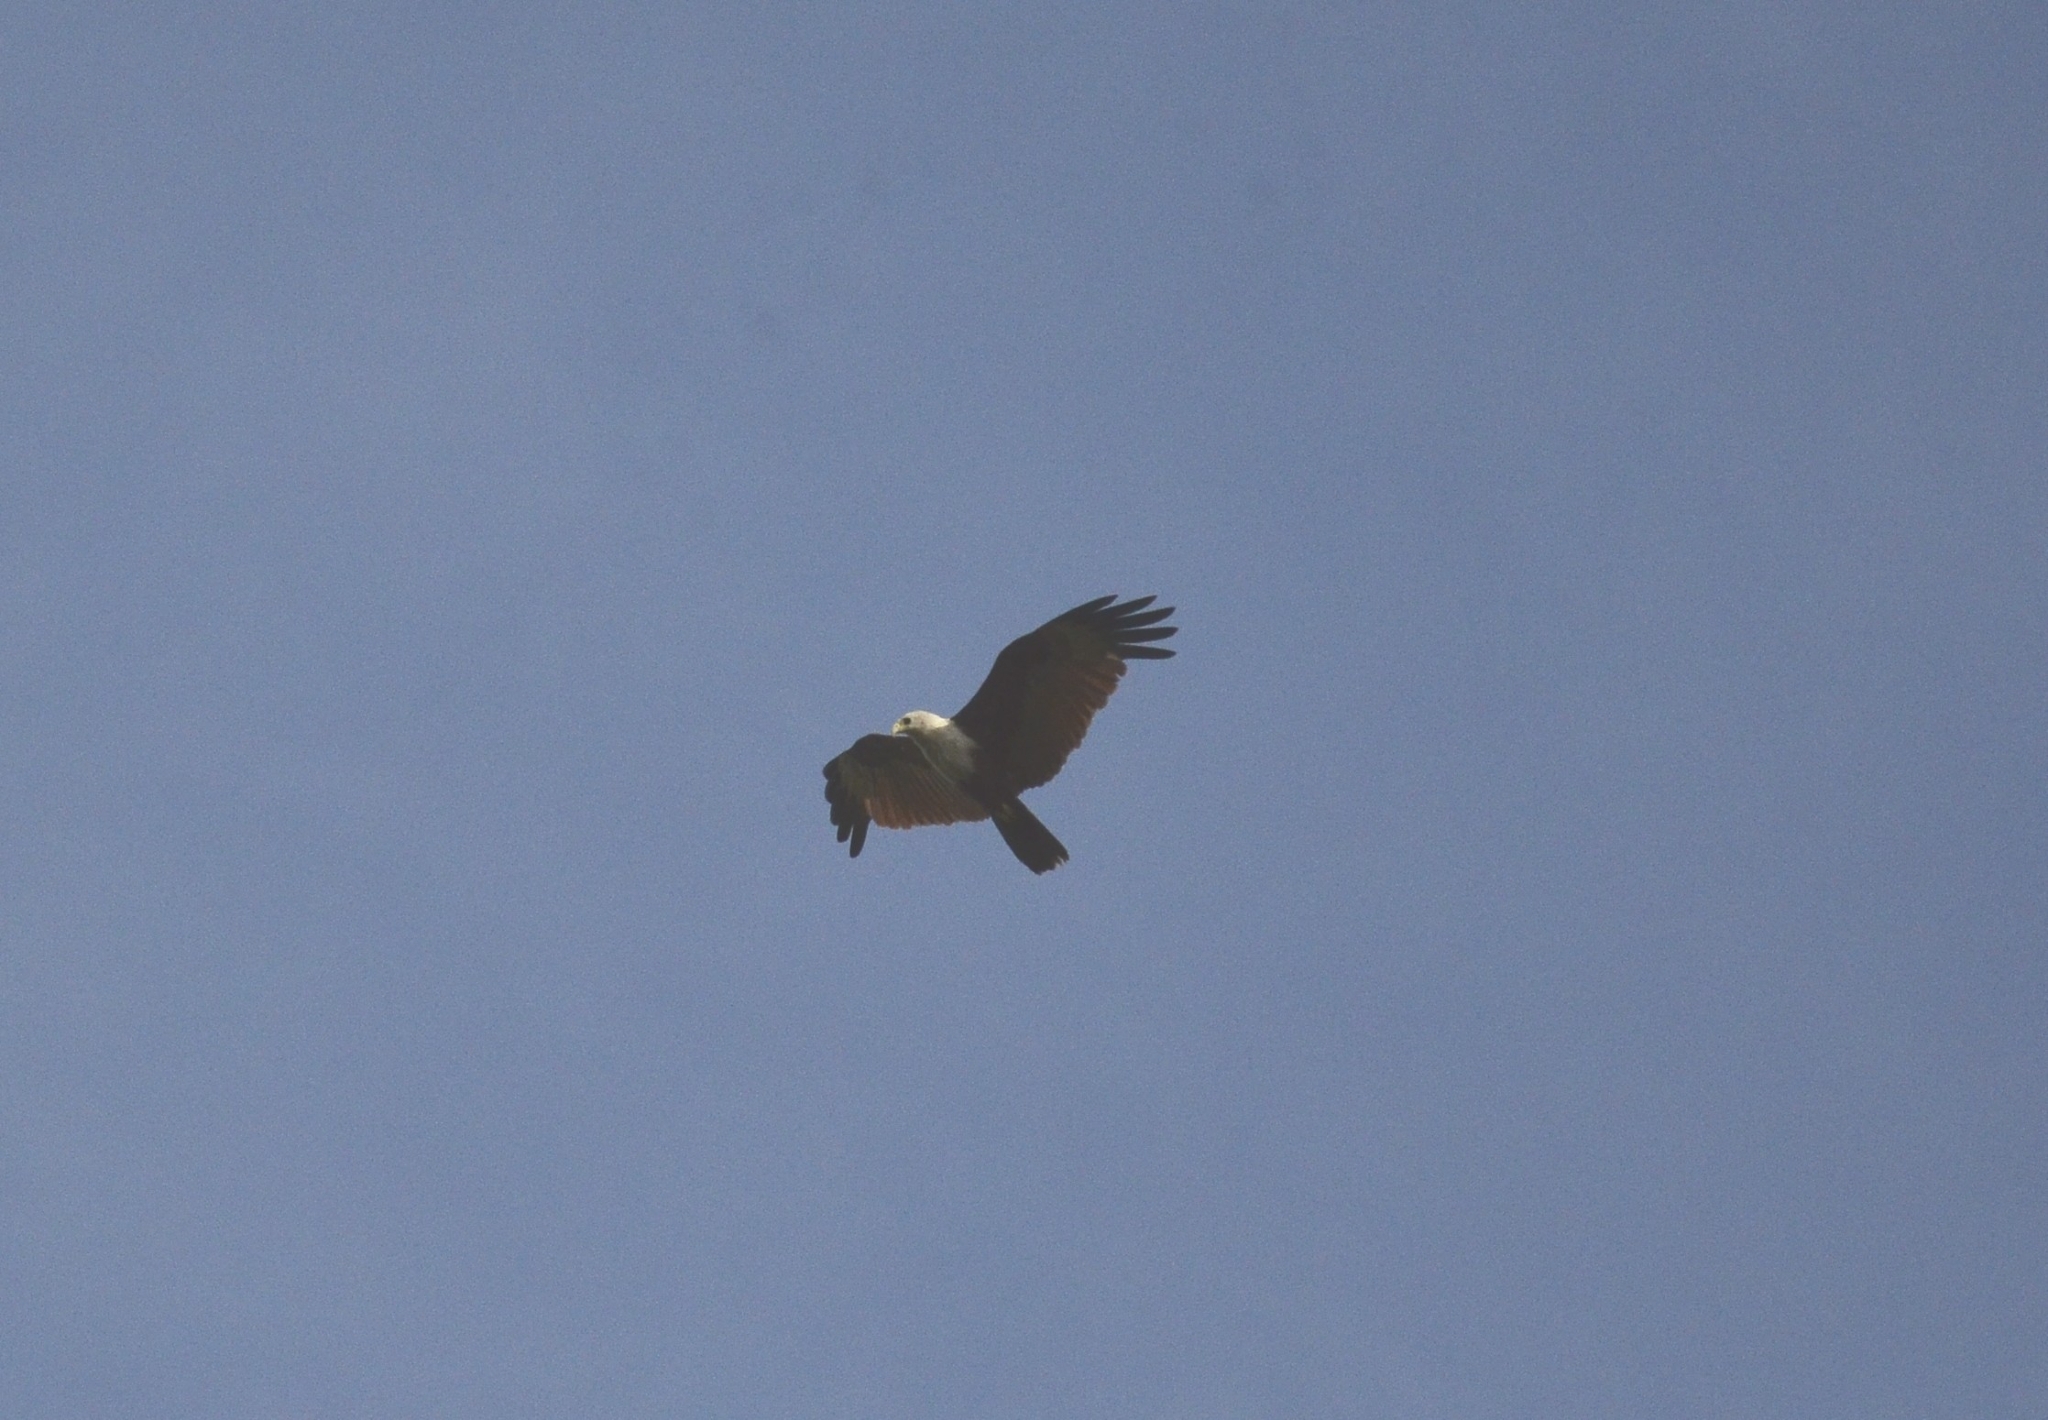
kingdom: Animalia
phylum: Chordata
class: Aves
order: Accipitriformes
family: Accipitridae
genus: Haliastur
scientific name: Haliastur indus
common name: Brahminy kite
